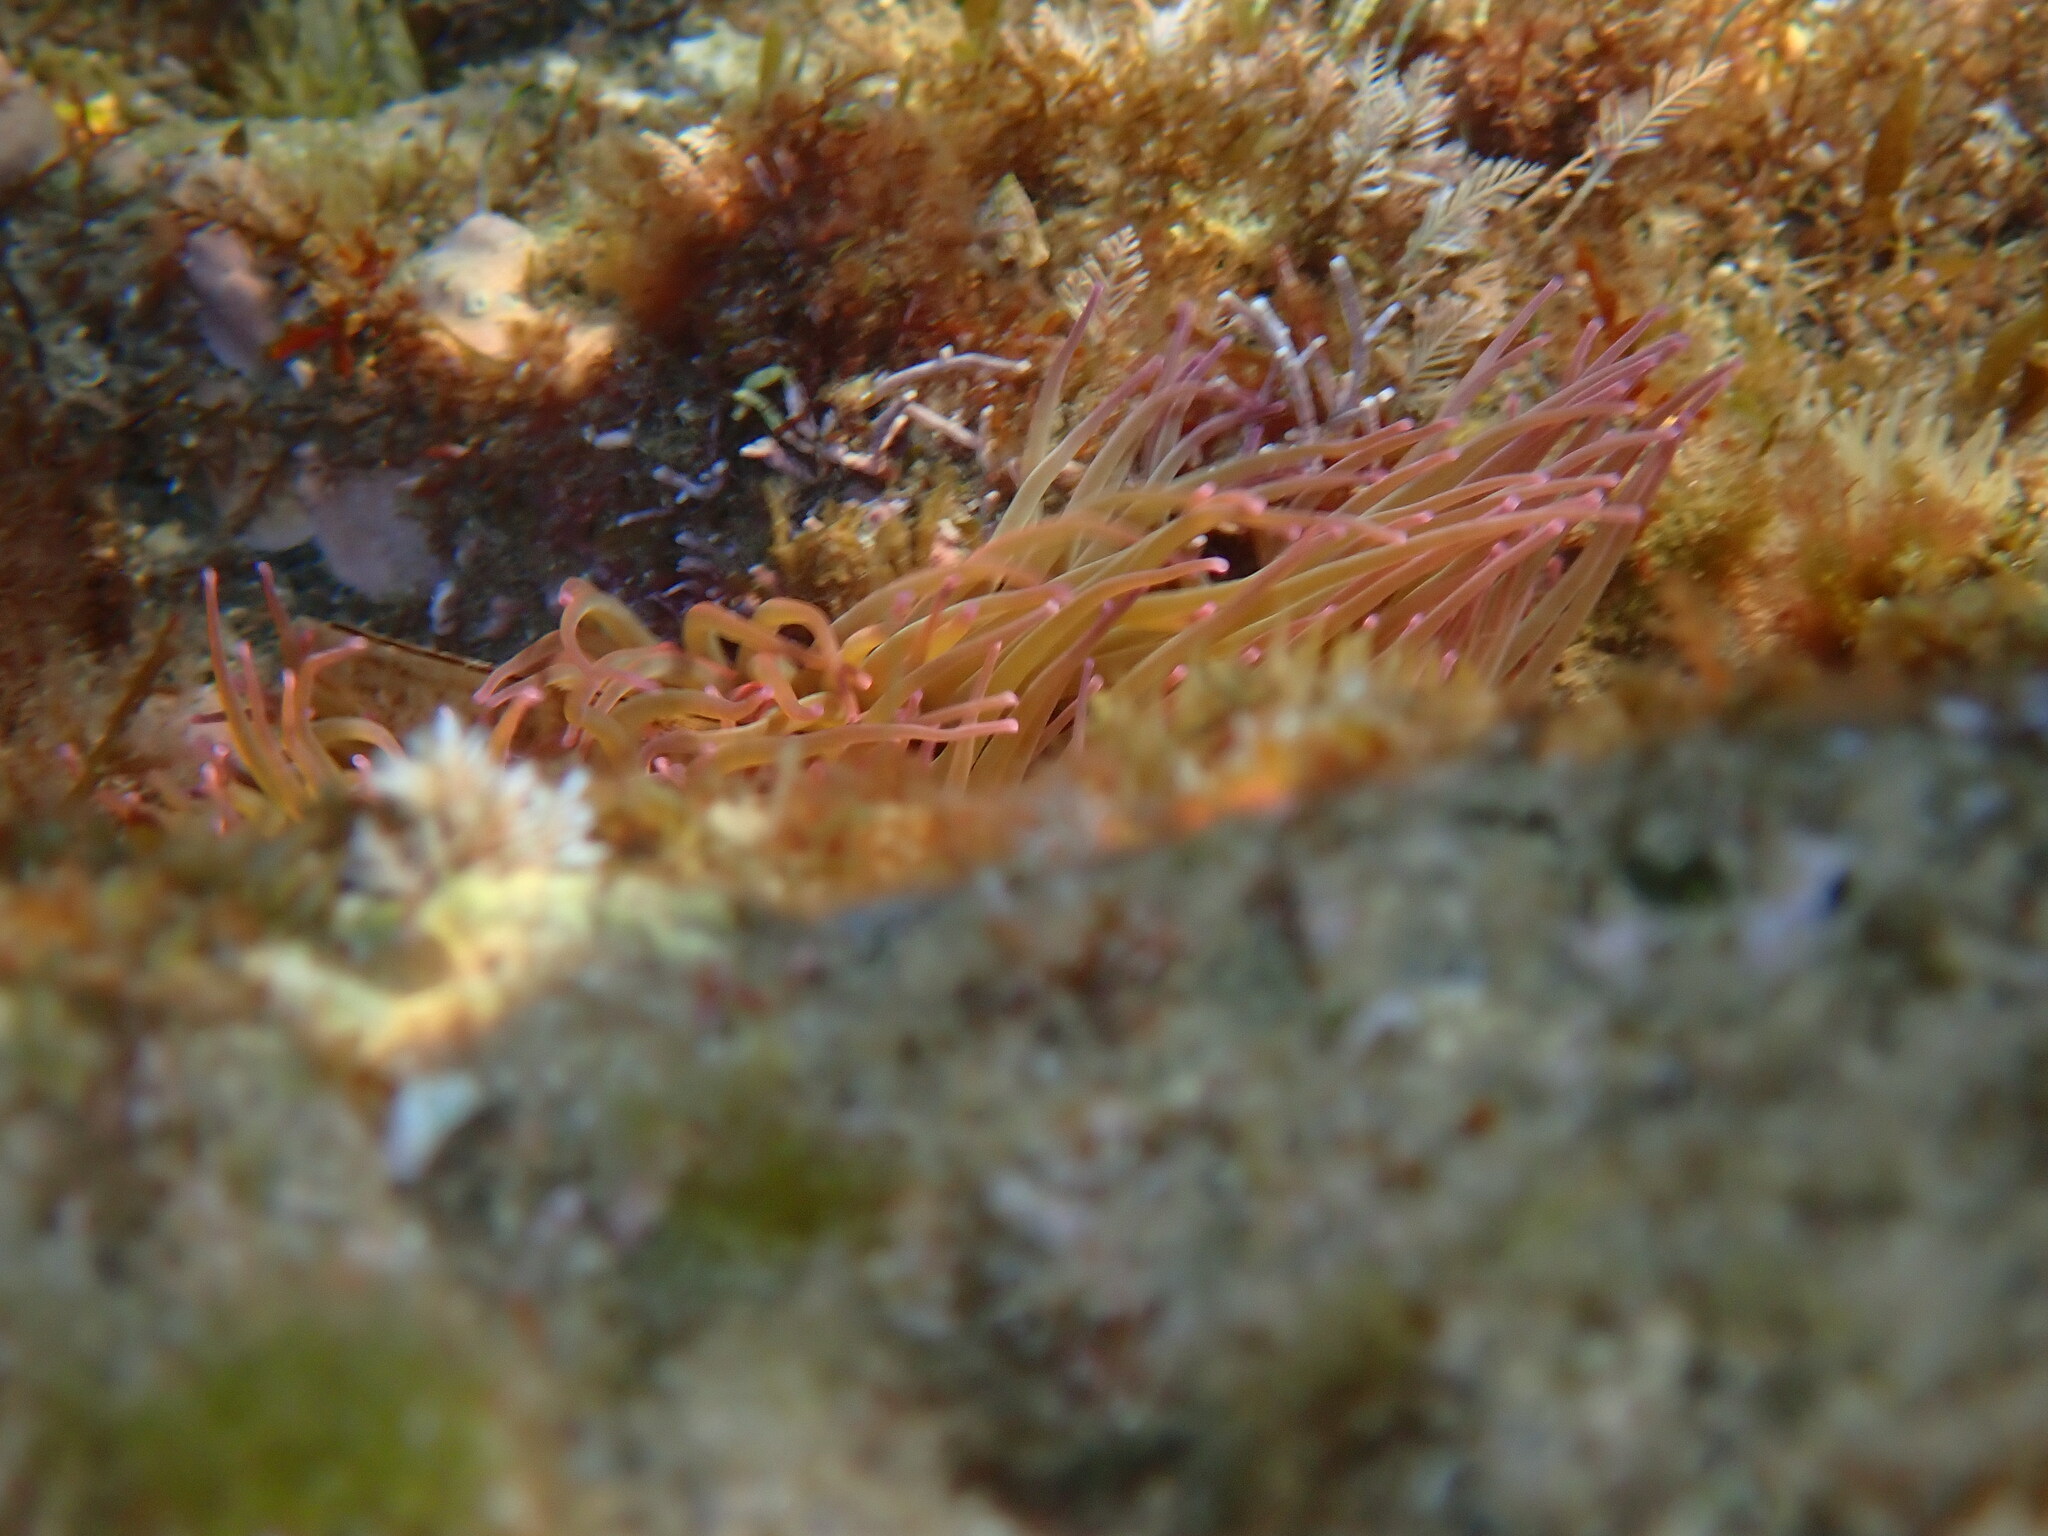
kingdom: Animalia
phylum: Cnidaria
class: Anthozoa
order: Actiniaria
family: Actiniidae
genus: Anemonia
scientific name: Anemonia viridis
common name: Snakelocks anemone
